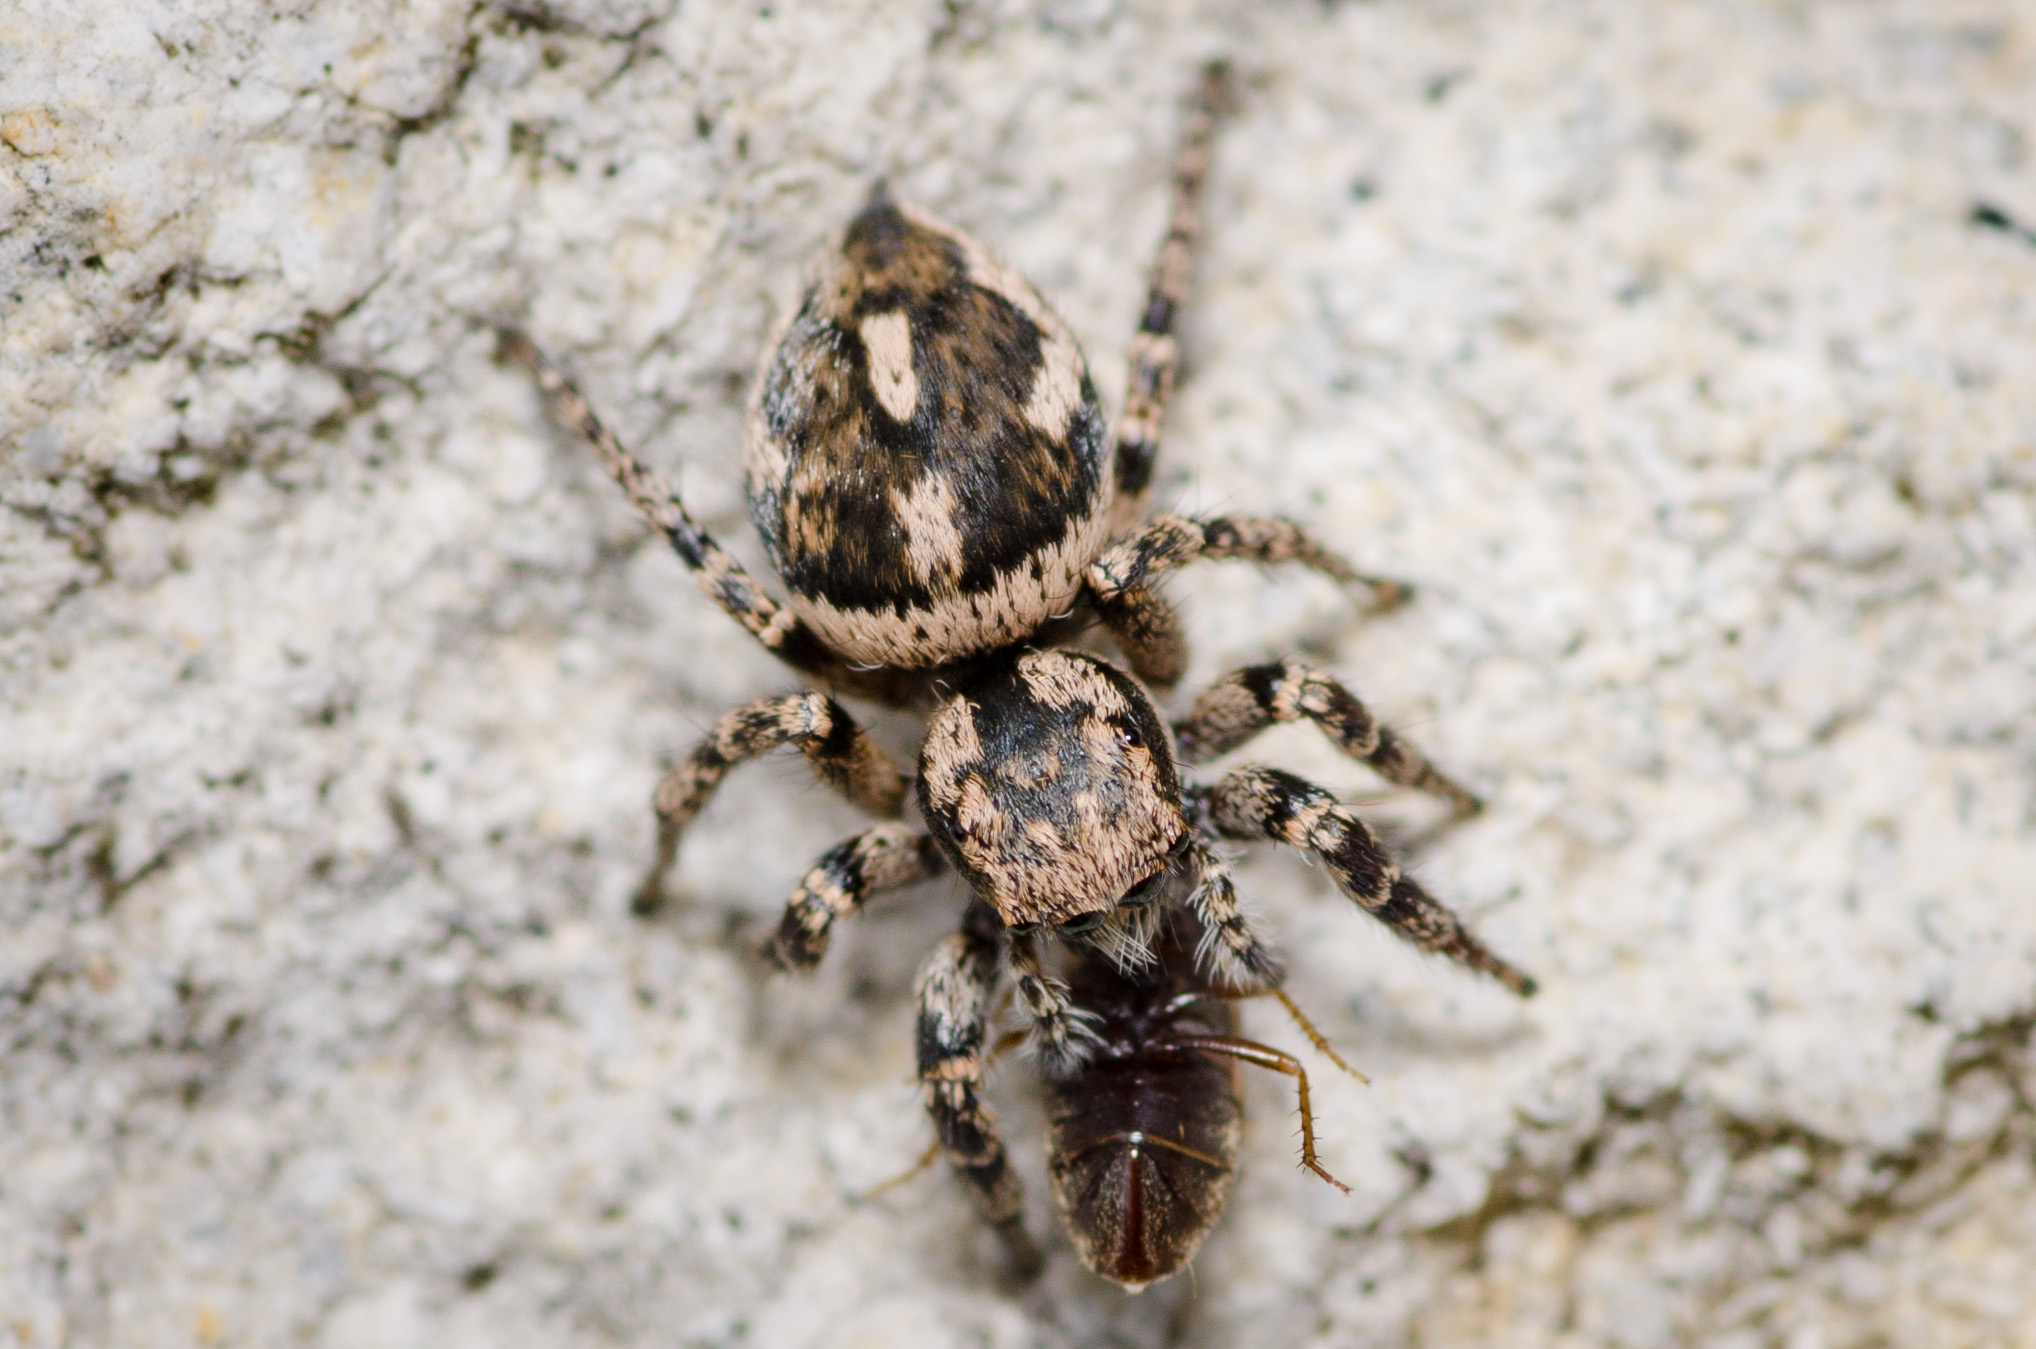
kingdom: Animalia
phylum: Arthropoda
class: Arachnida
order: Araneae
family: Salticidae
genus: Habronattus
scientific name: Habronattus fallax
